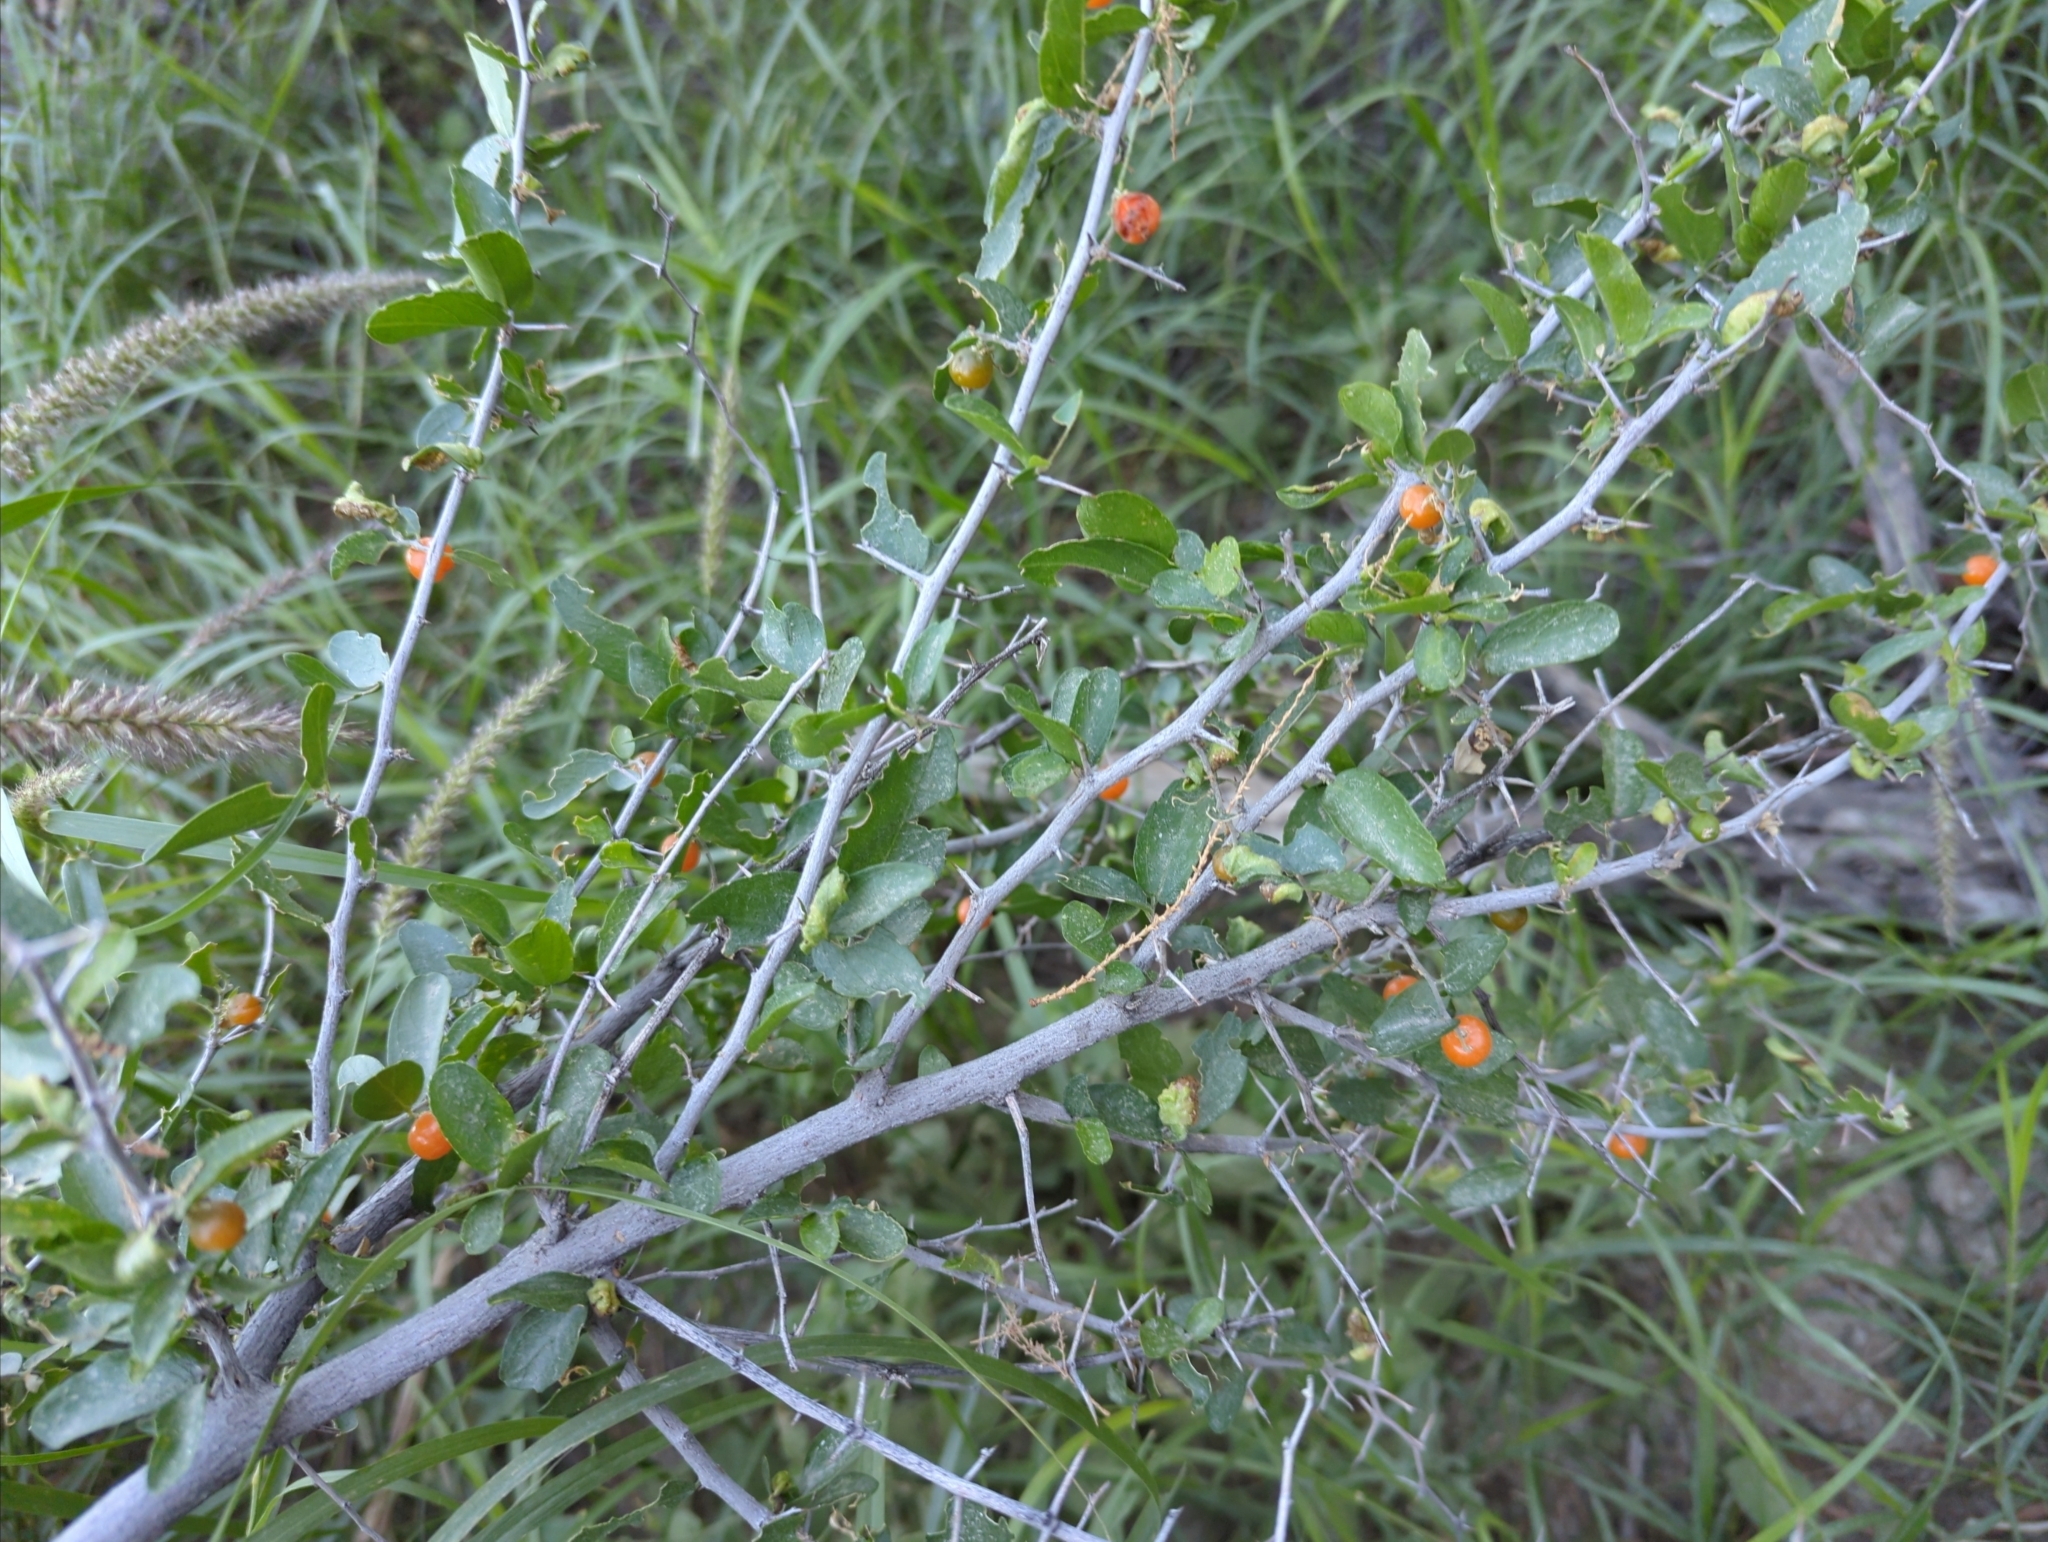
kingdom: Plantae
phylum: Tracheophyta
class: Magnoliopsida
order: Rosales
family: Cannabaceae
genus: Celtis
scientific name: Celtis pallida
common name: Desert hackberry
